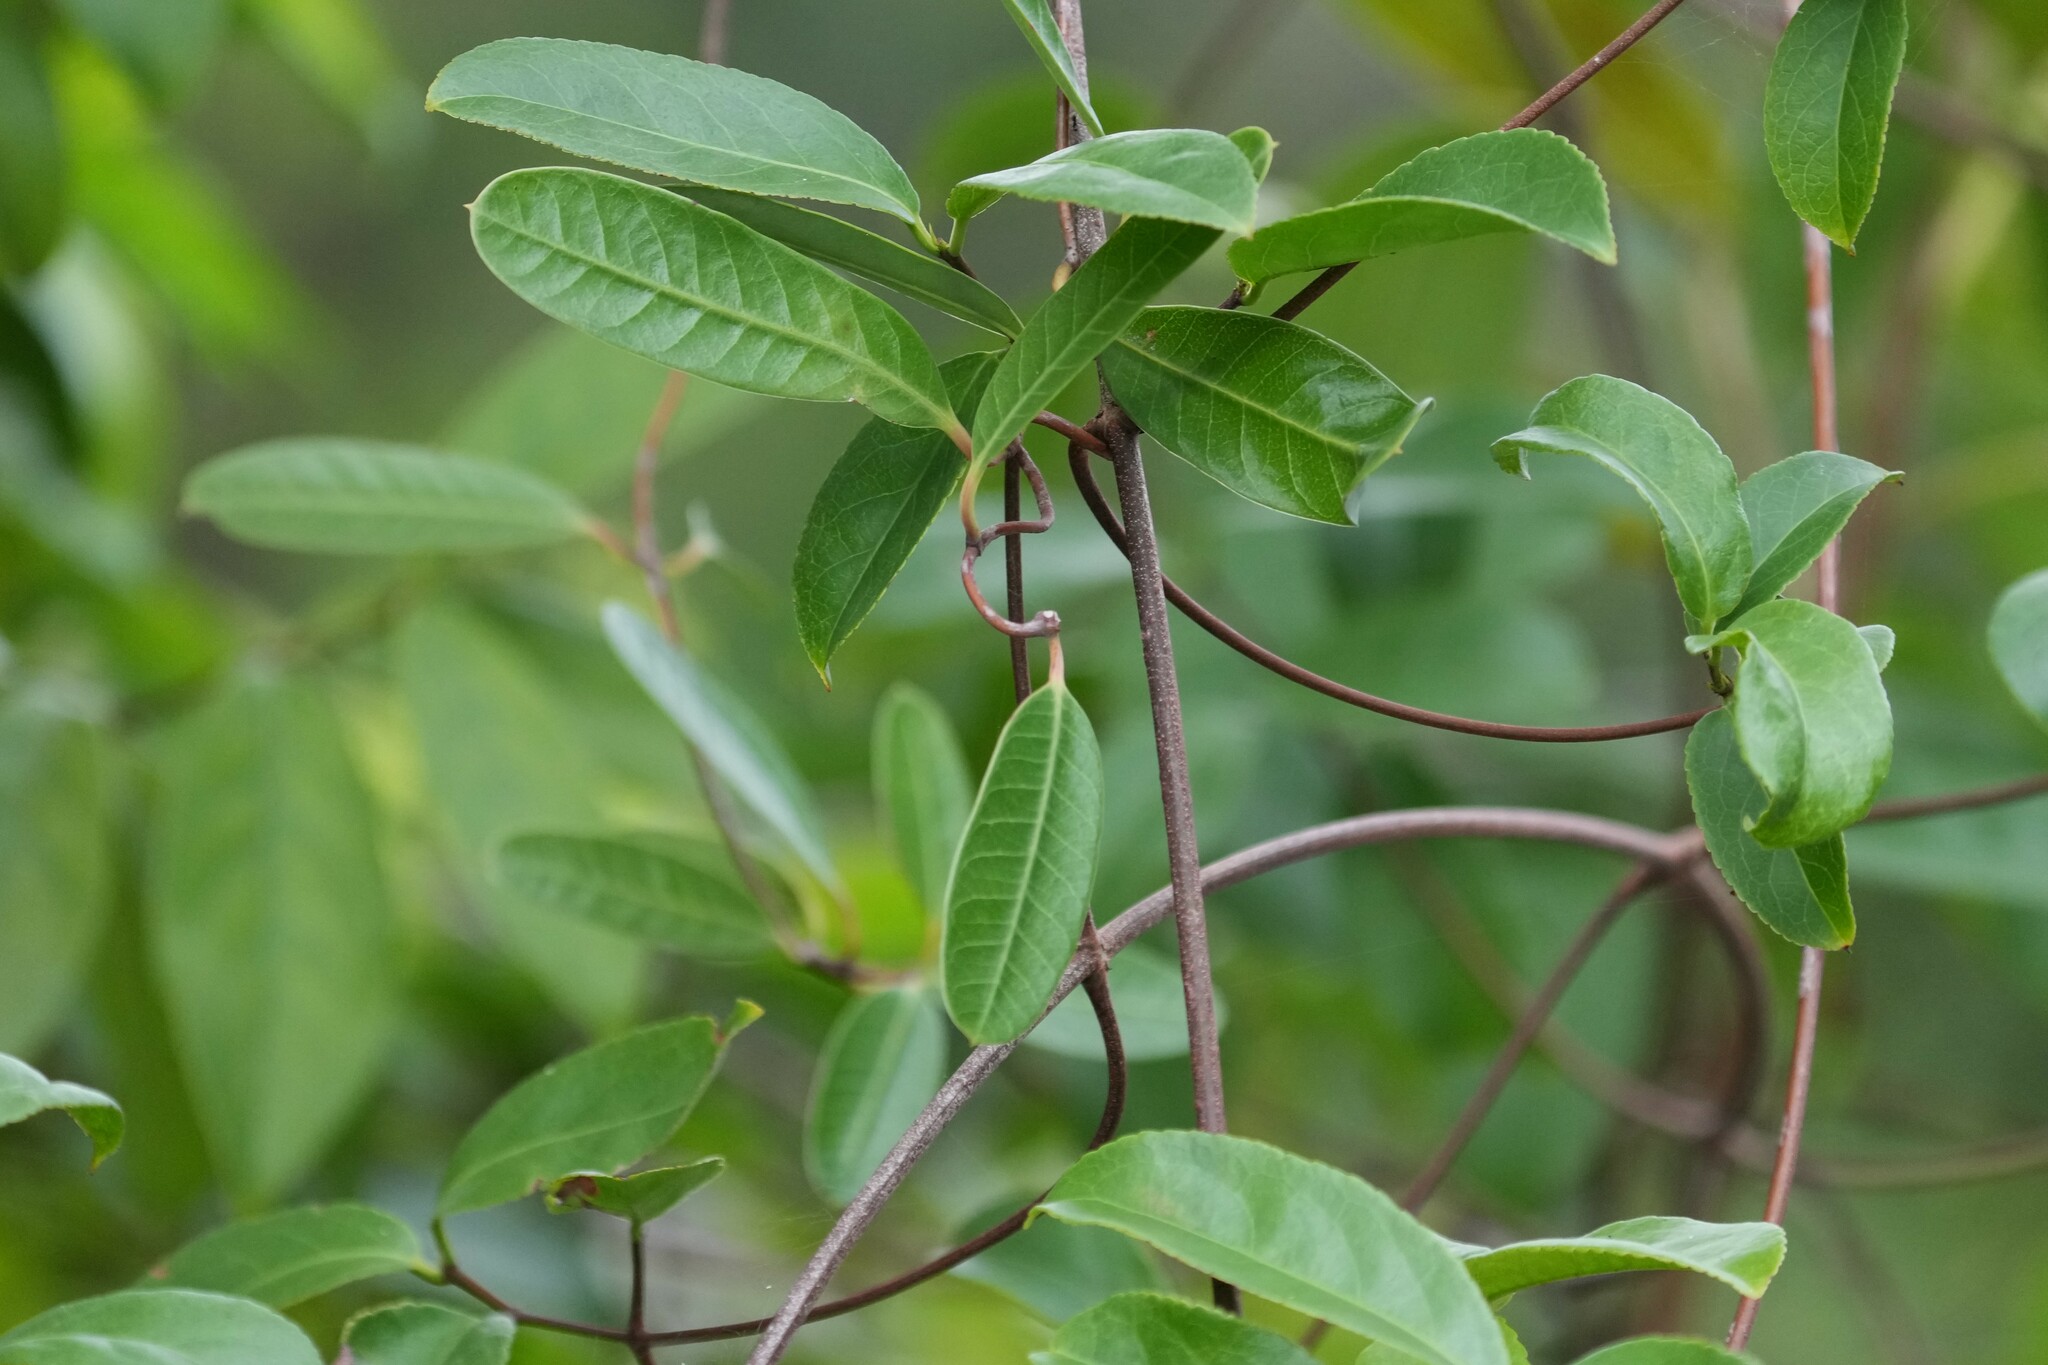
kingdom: Plantae
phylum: Tracheophyta
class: Magnoliopsida
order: Gentianales
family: Apocynaceae
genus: Rhabdadenia
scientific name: Rhabdadenia biflora
